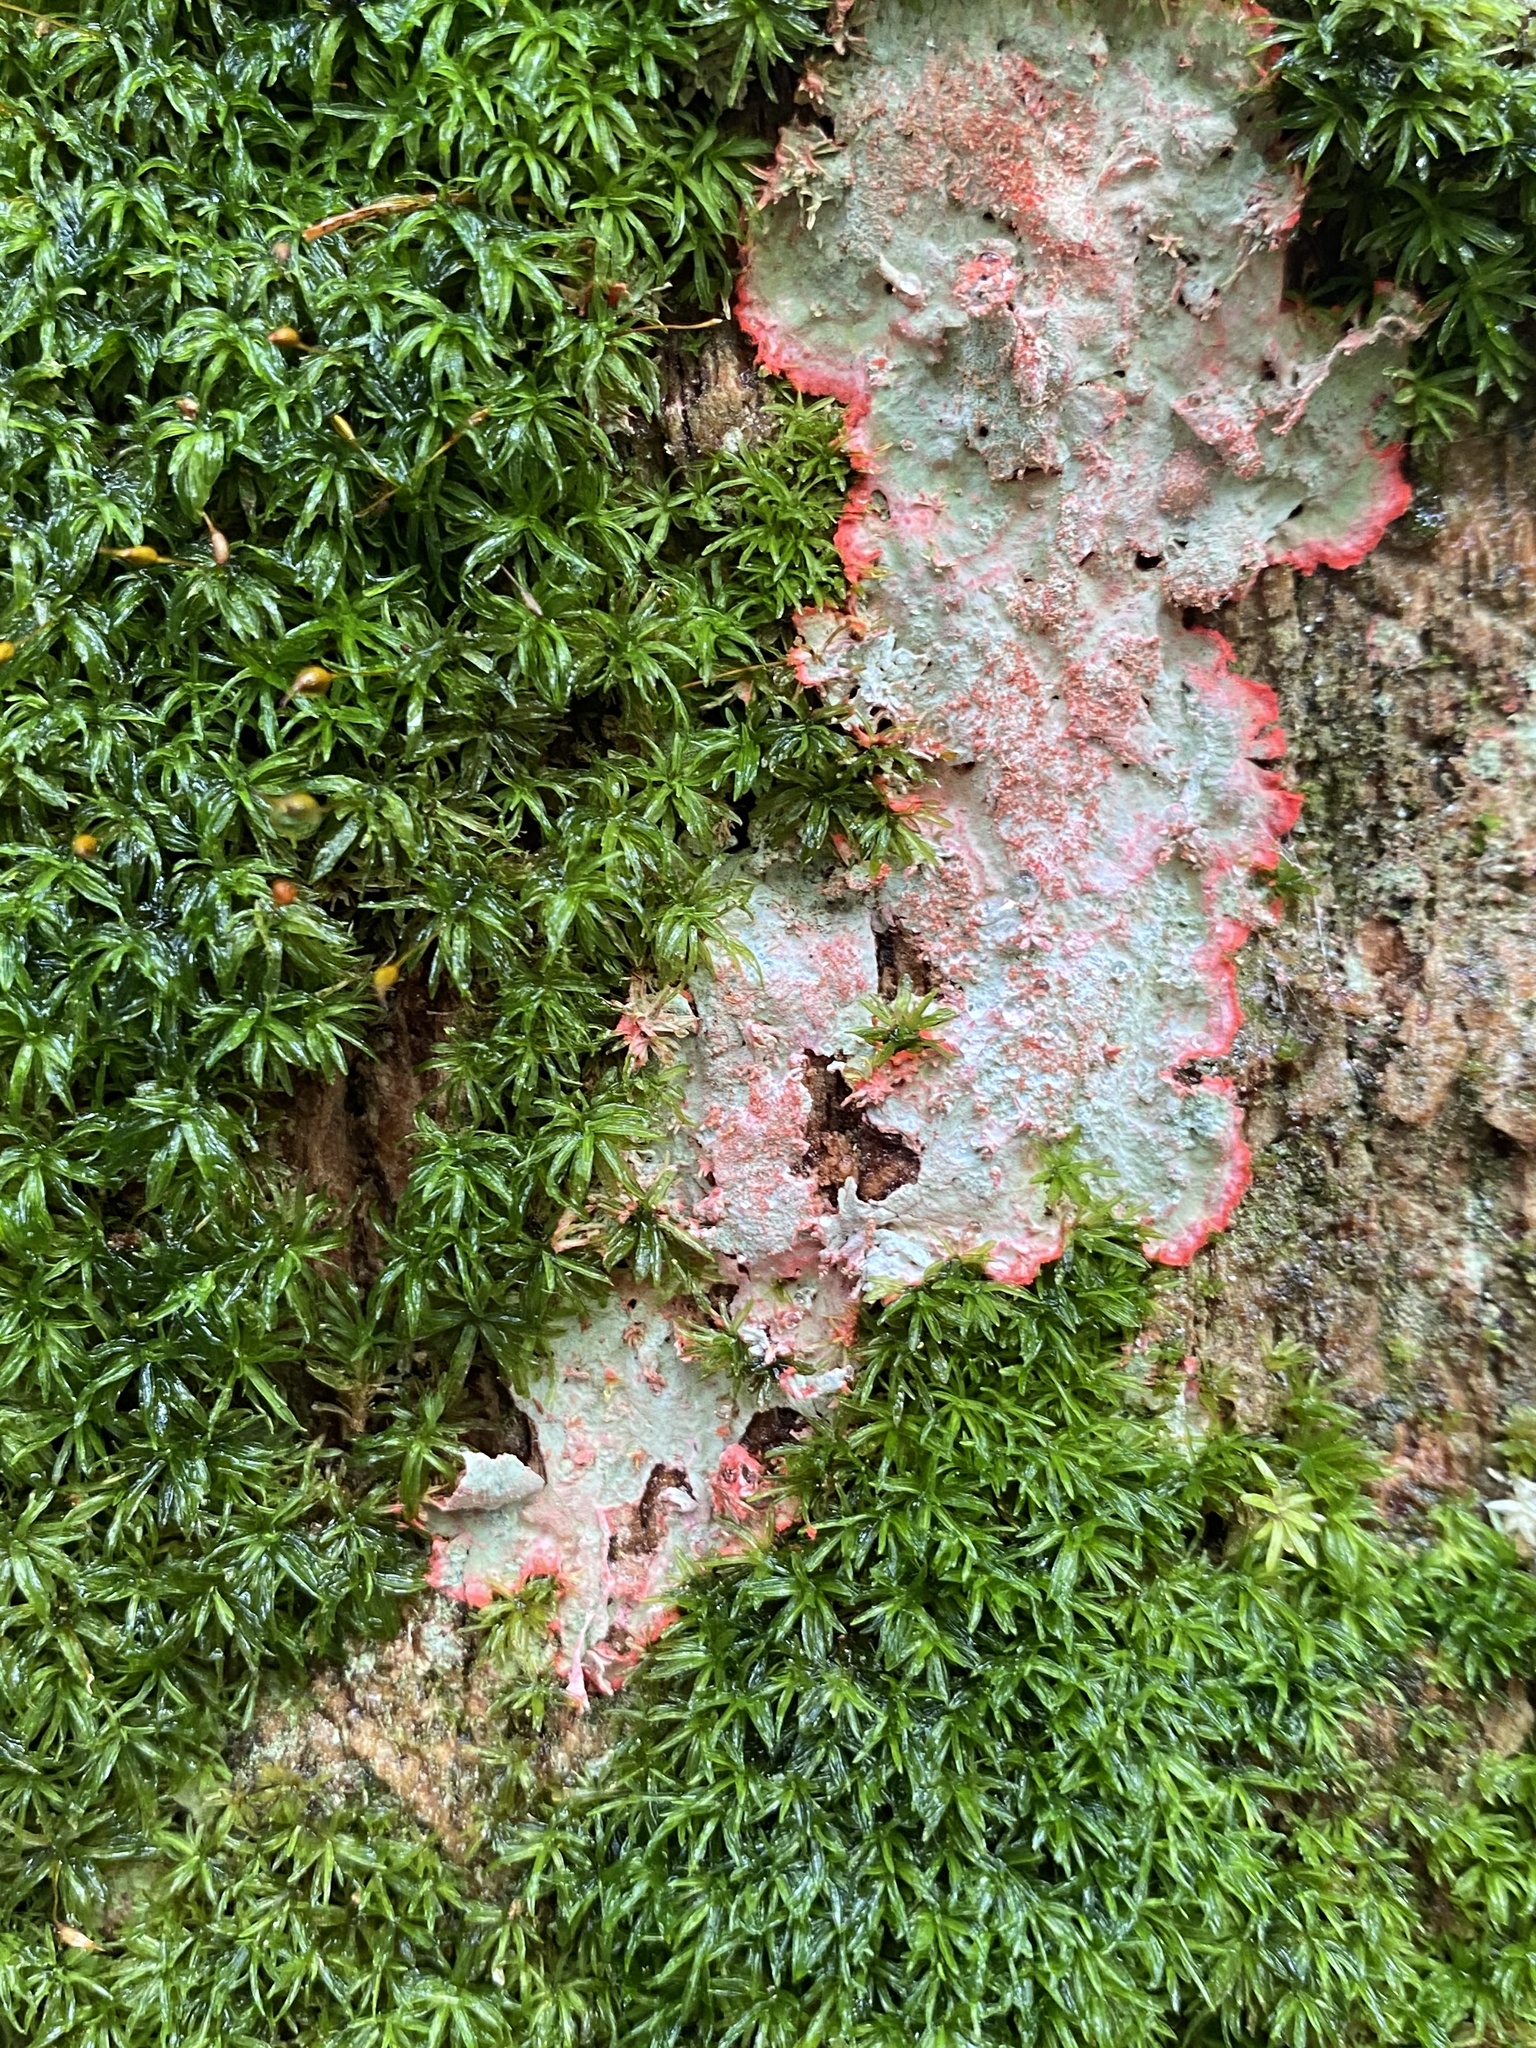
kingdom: Fungi
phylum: Ascomycota
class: Arthoniomycetes
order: Arthoniales
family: Arthoniaceae
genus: Herpothallon
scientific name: Herpothallon rubrocinctum
